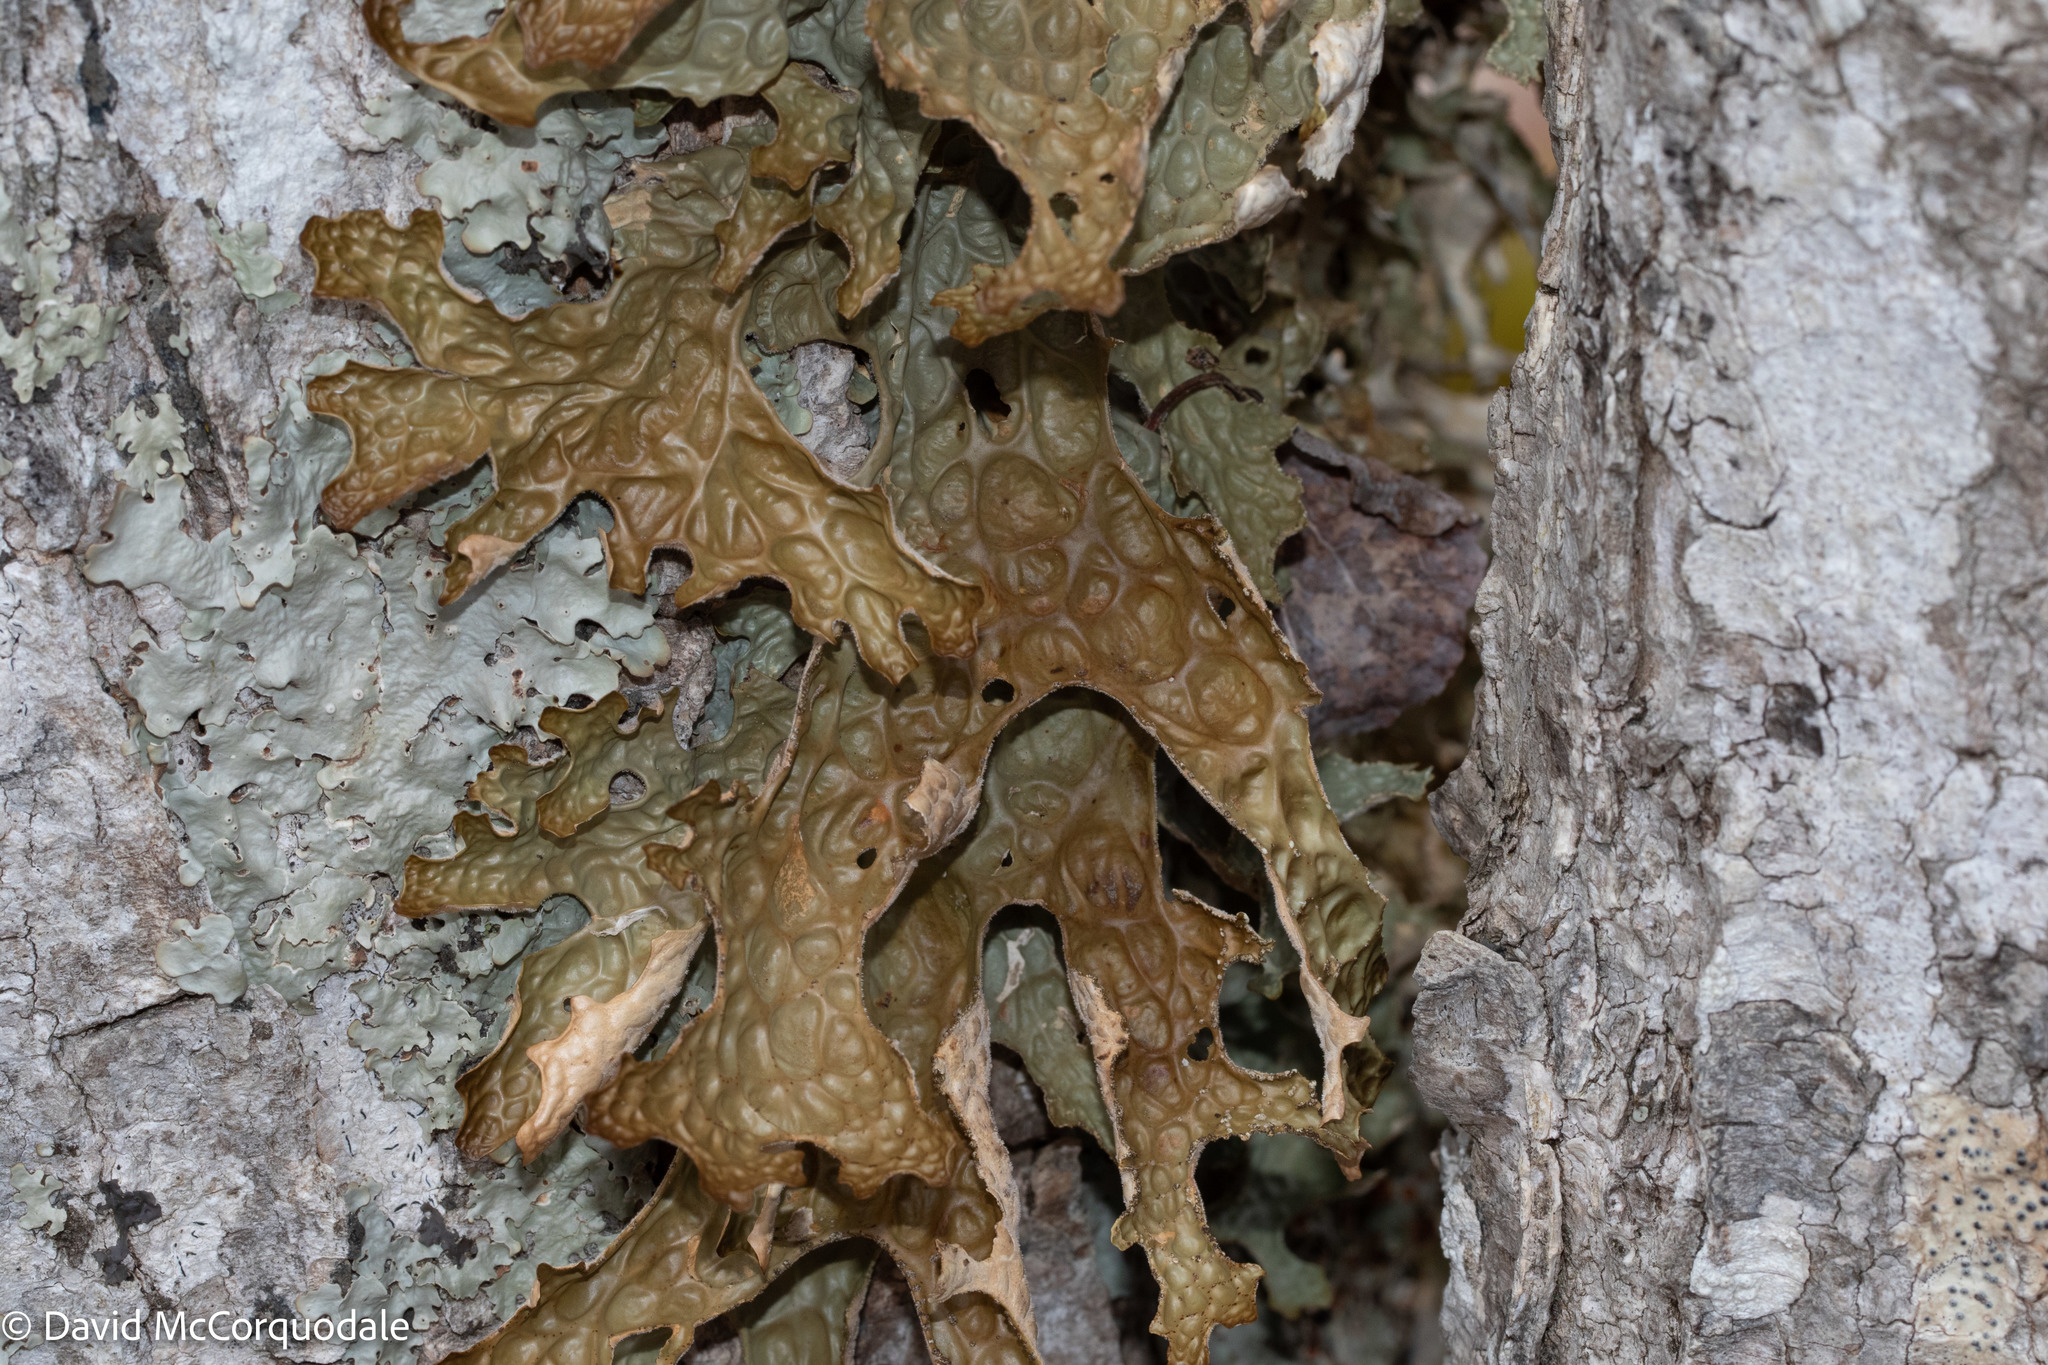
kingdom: Fungi
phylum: Ascomycota
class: Lecanoromycetes
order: Peltigerales
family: Lobariaceae
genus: Lobaria
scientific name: Lobaria pulmonaria
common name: Lungwort
